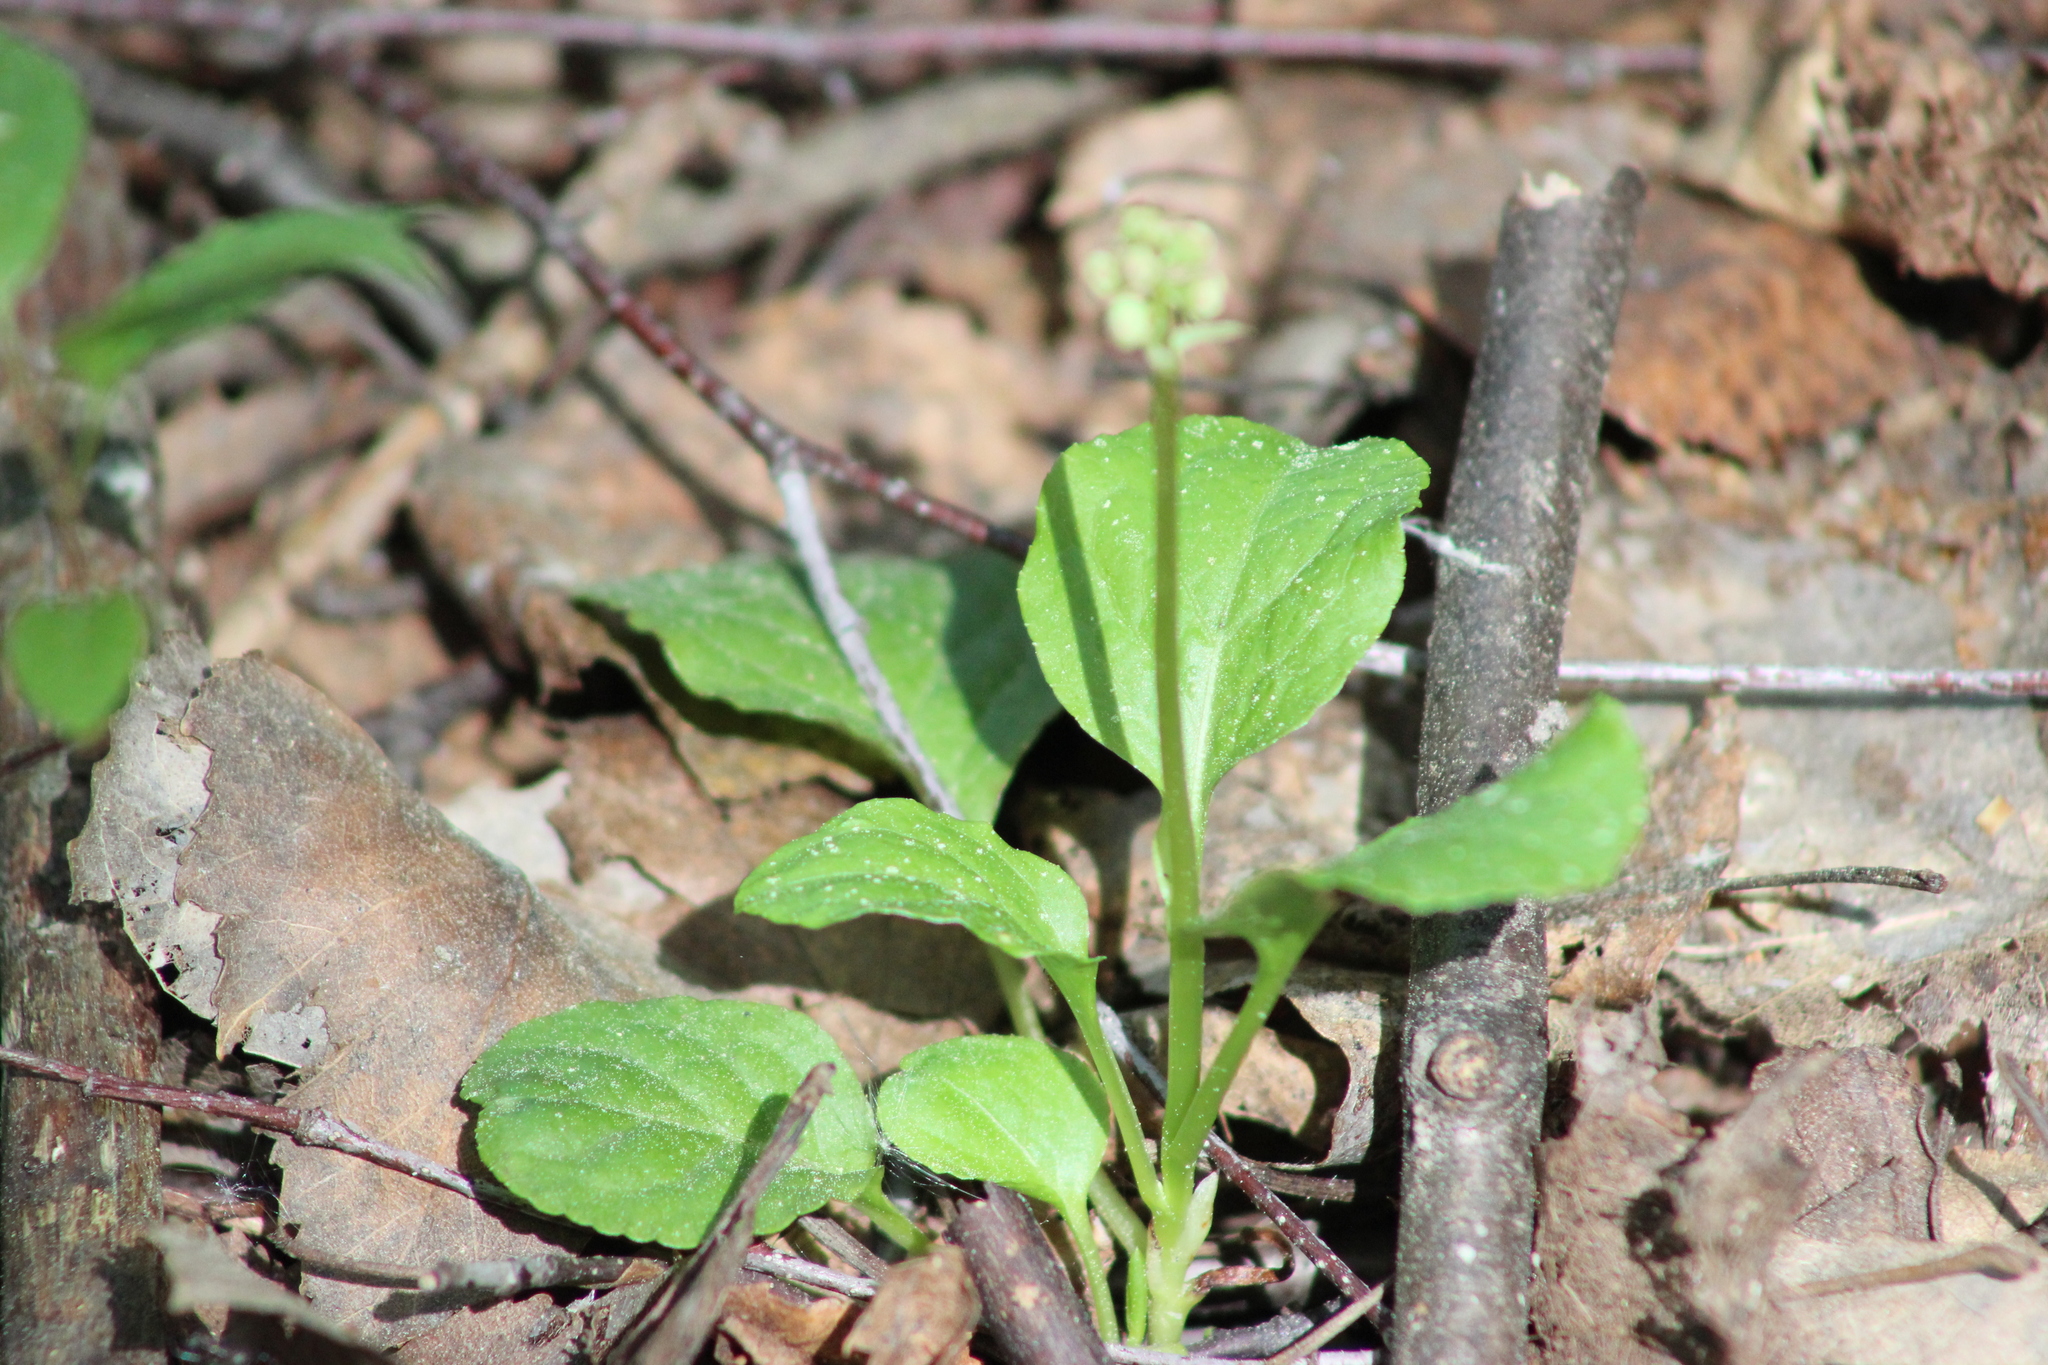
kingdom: Plantae
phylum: Tracheophyta
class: Magnoliopsida
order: Ericales
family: Ericaceae
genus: Pyrola
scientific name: Pyrola minor
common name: Common wintergreen
